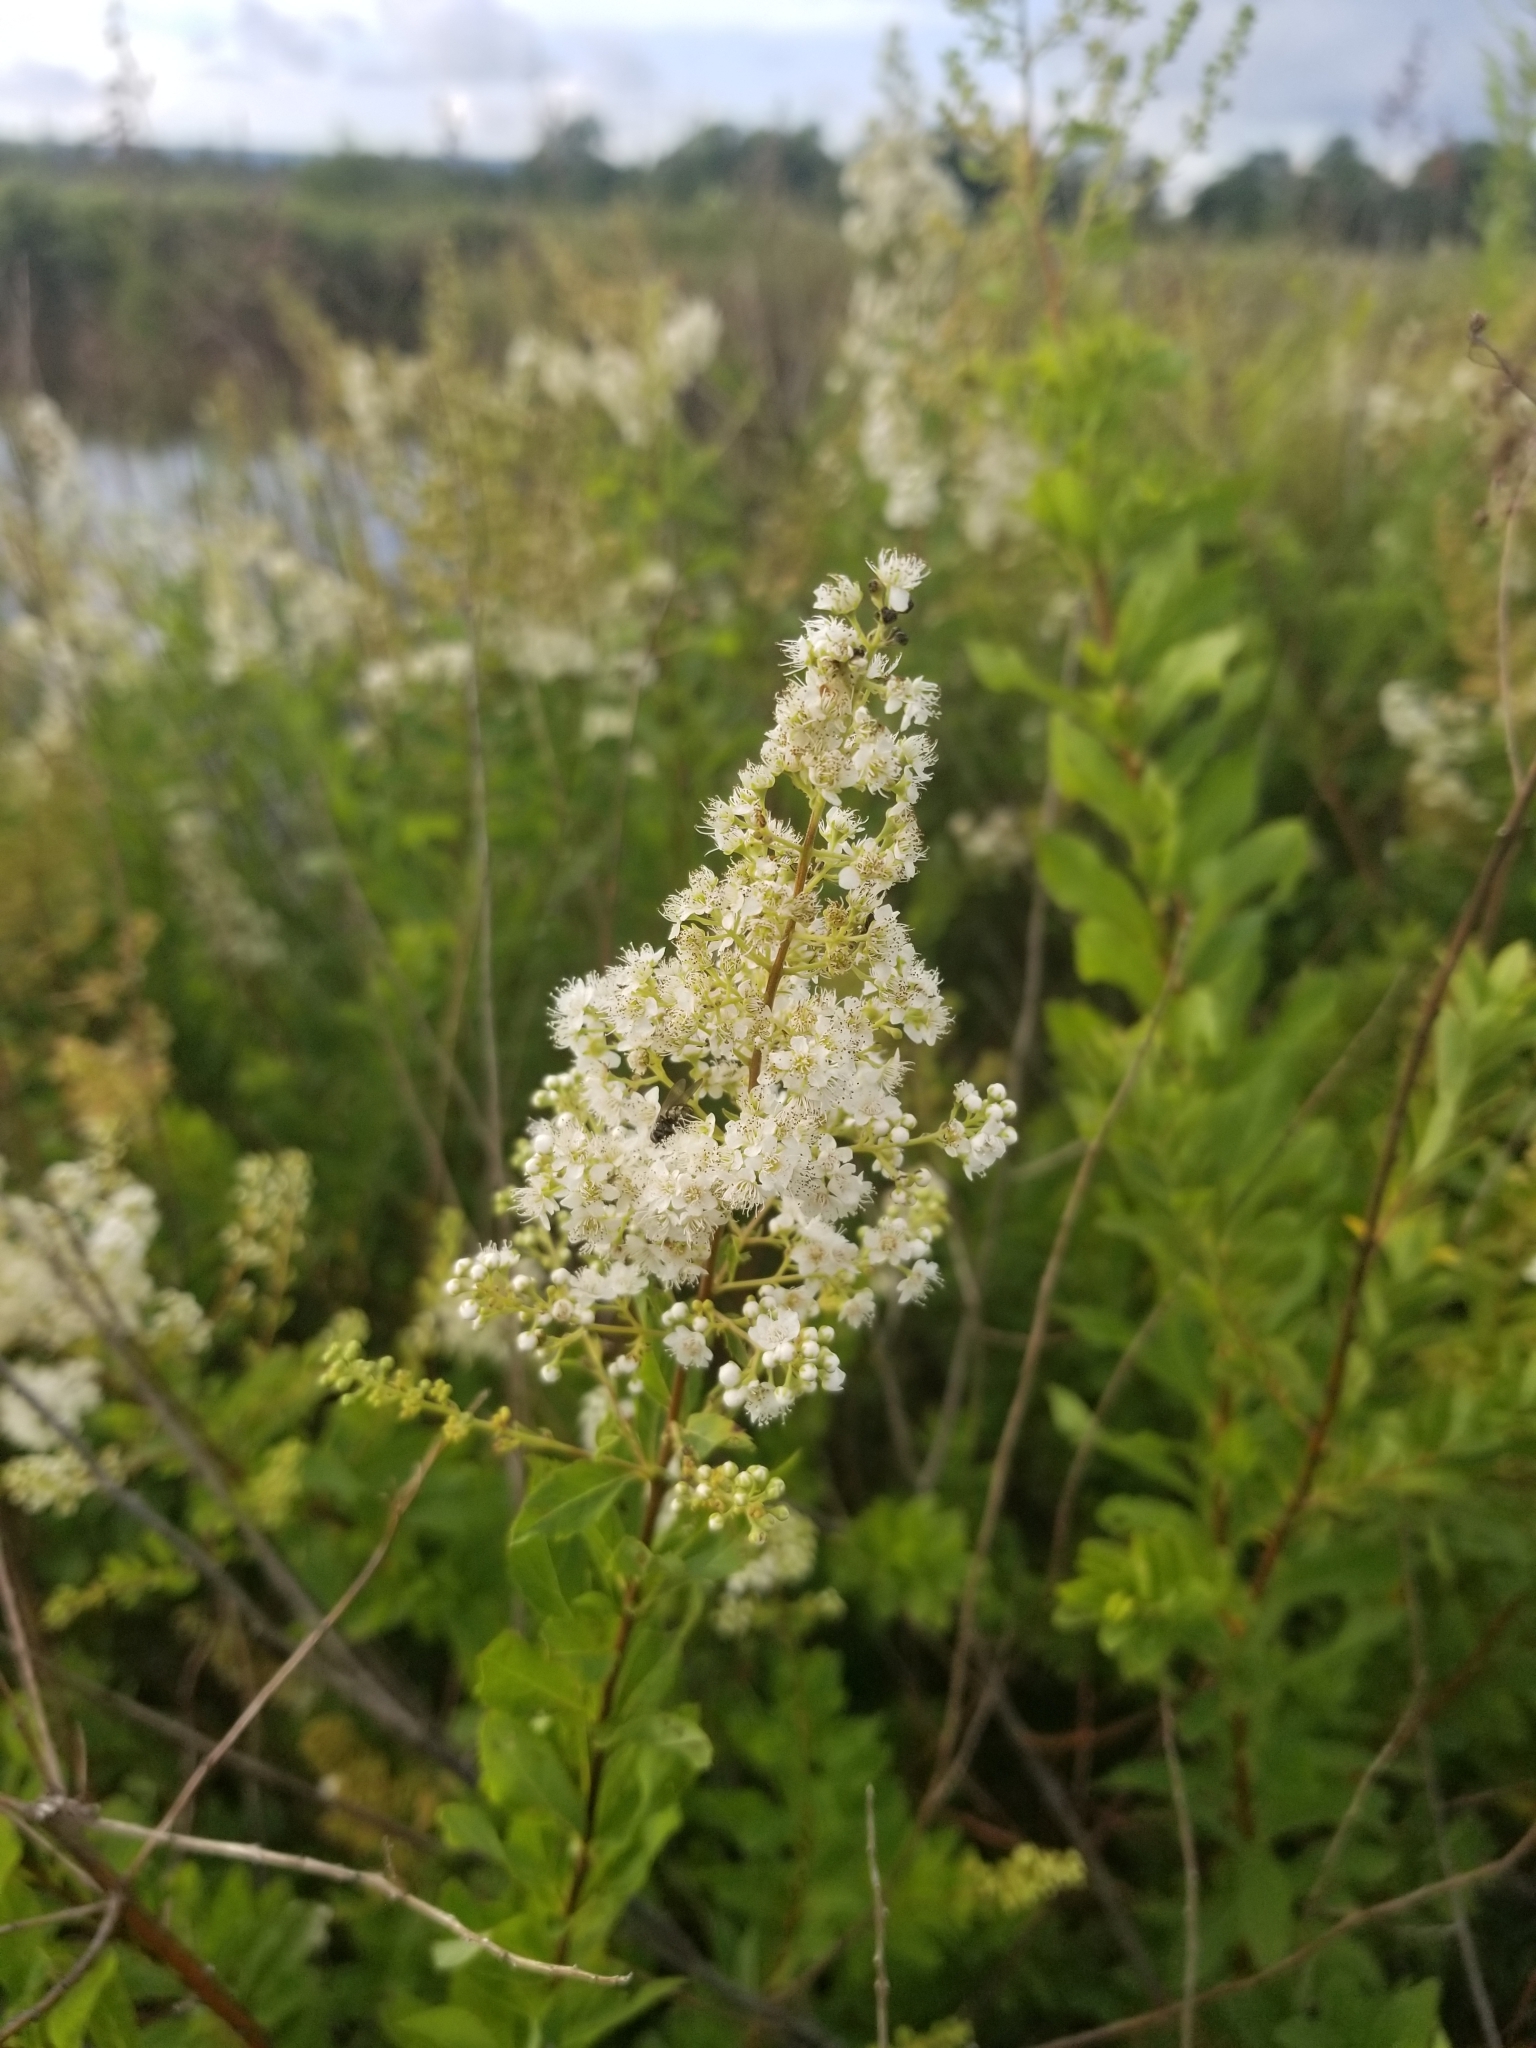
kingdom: Plantae
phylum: Tracheophyta
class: Magnoliopsida
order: Rosales
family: Rosaceae
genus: Spiraea
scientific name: Spiraea alba
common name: Pale bridewort
